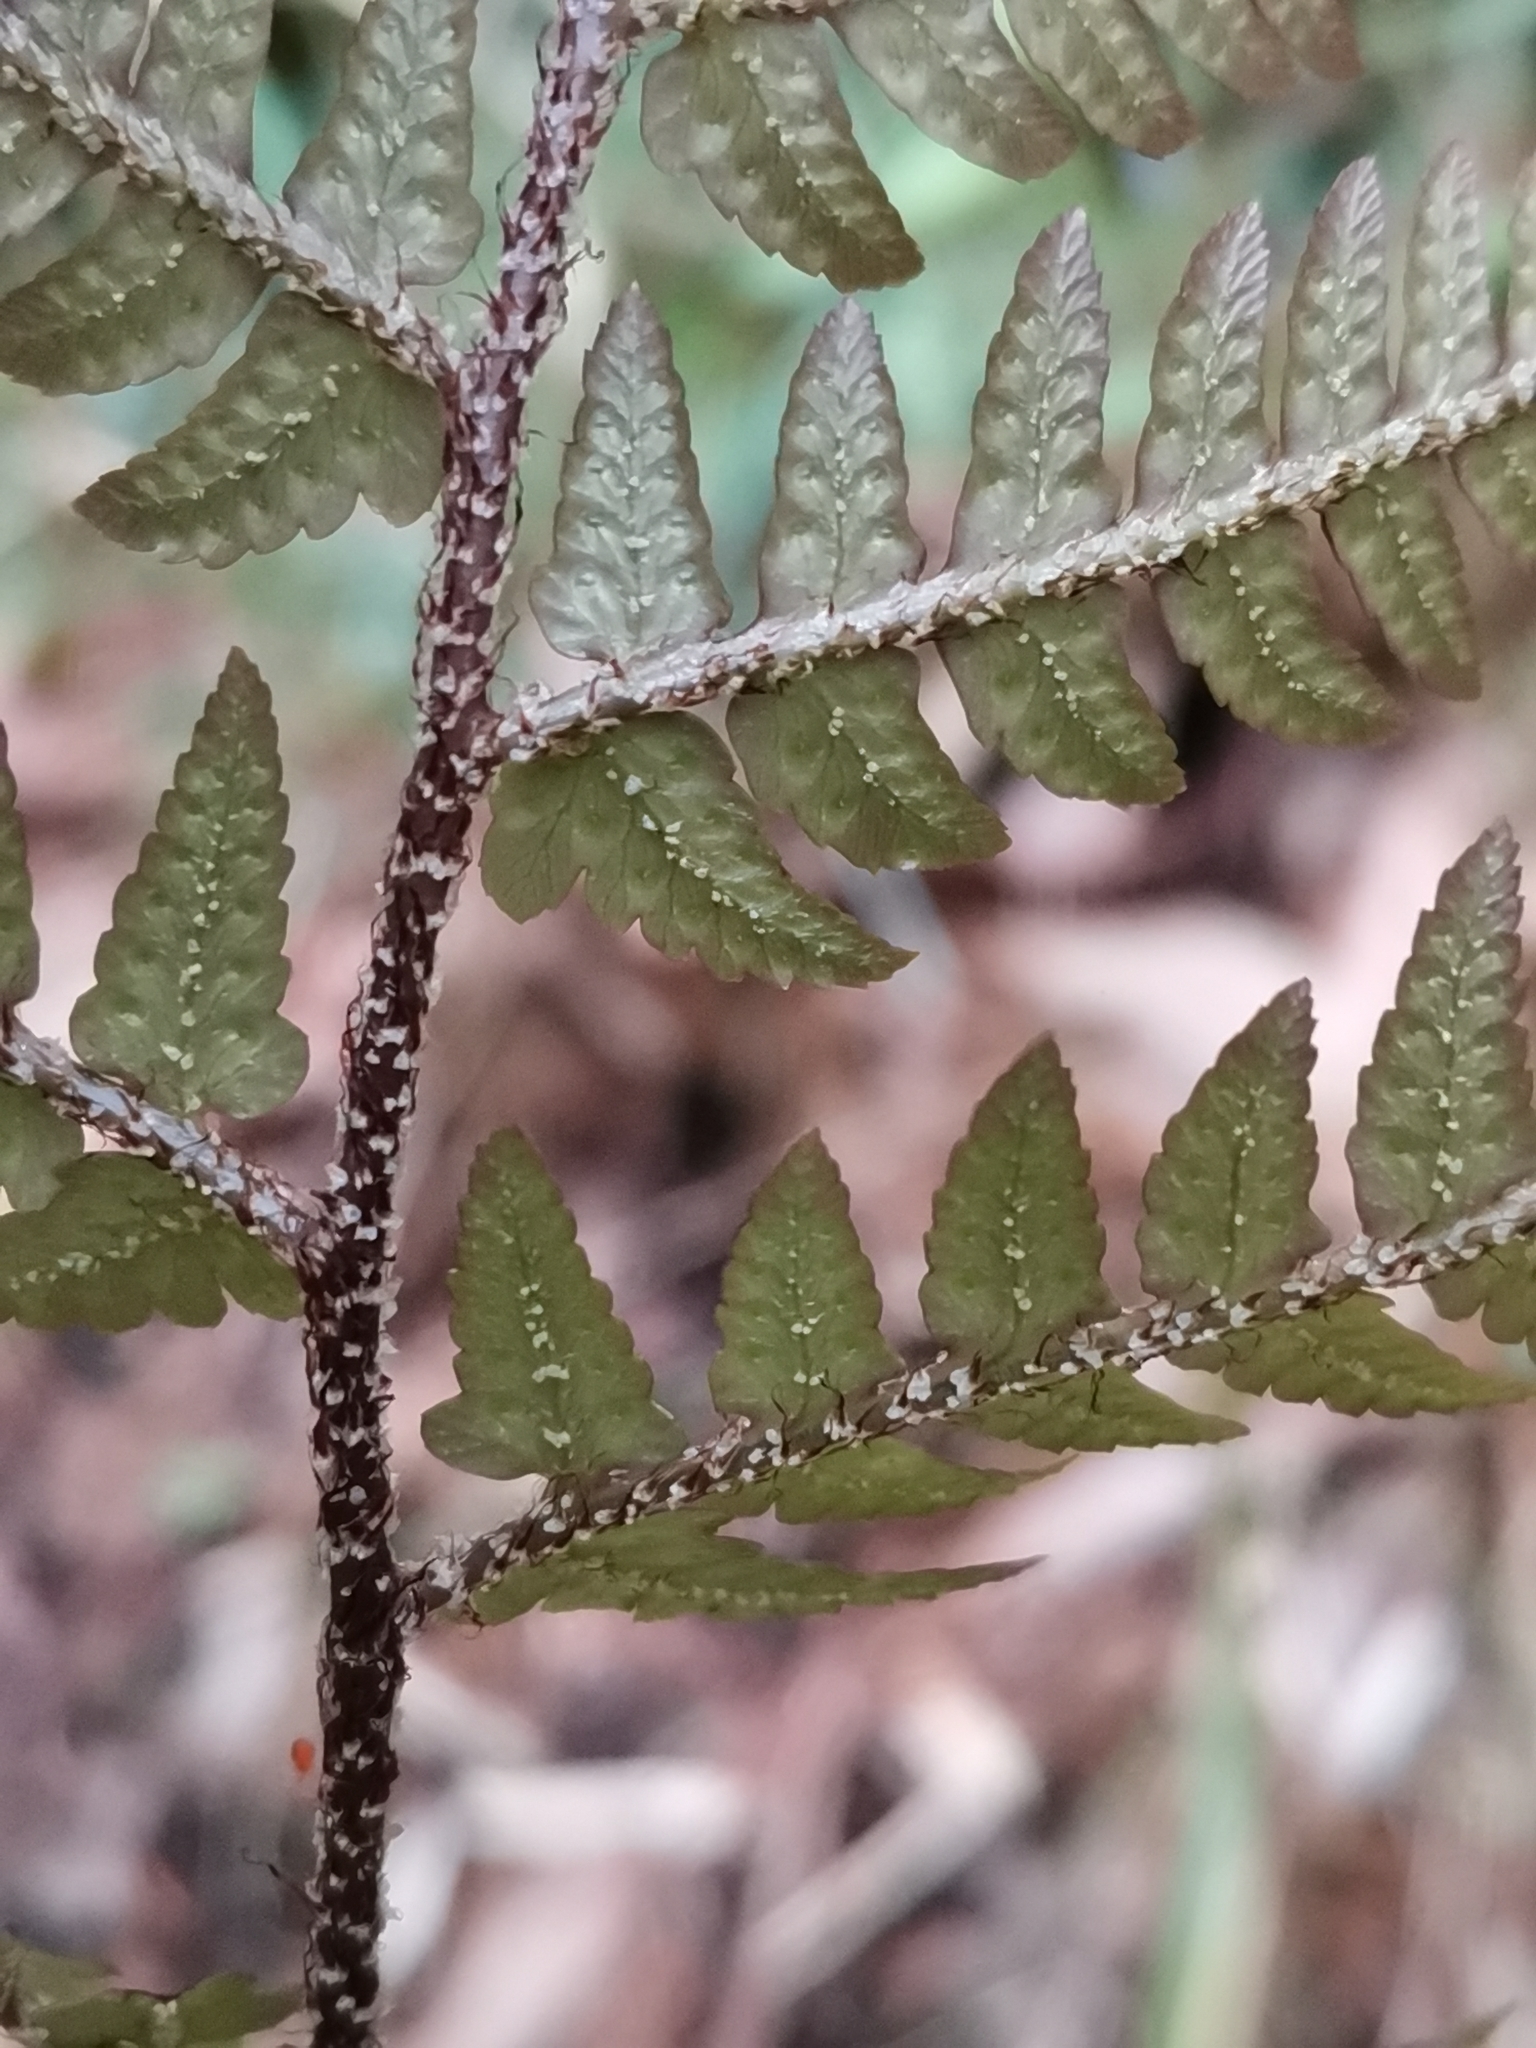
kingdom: Plantae
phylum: Tracheophyta
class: Polypodiopsida
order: Polypodiales
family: Dryopteridaceae
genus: Dryopteris
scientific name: Dryopteris immixta
